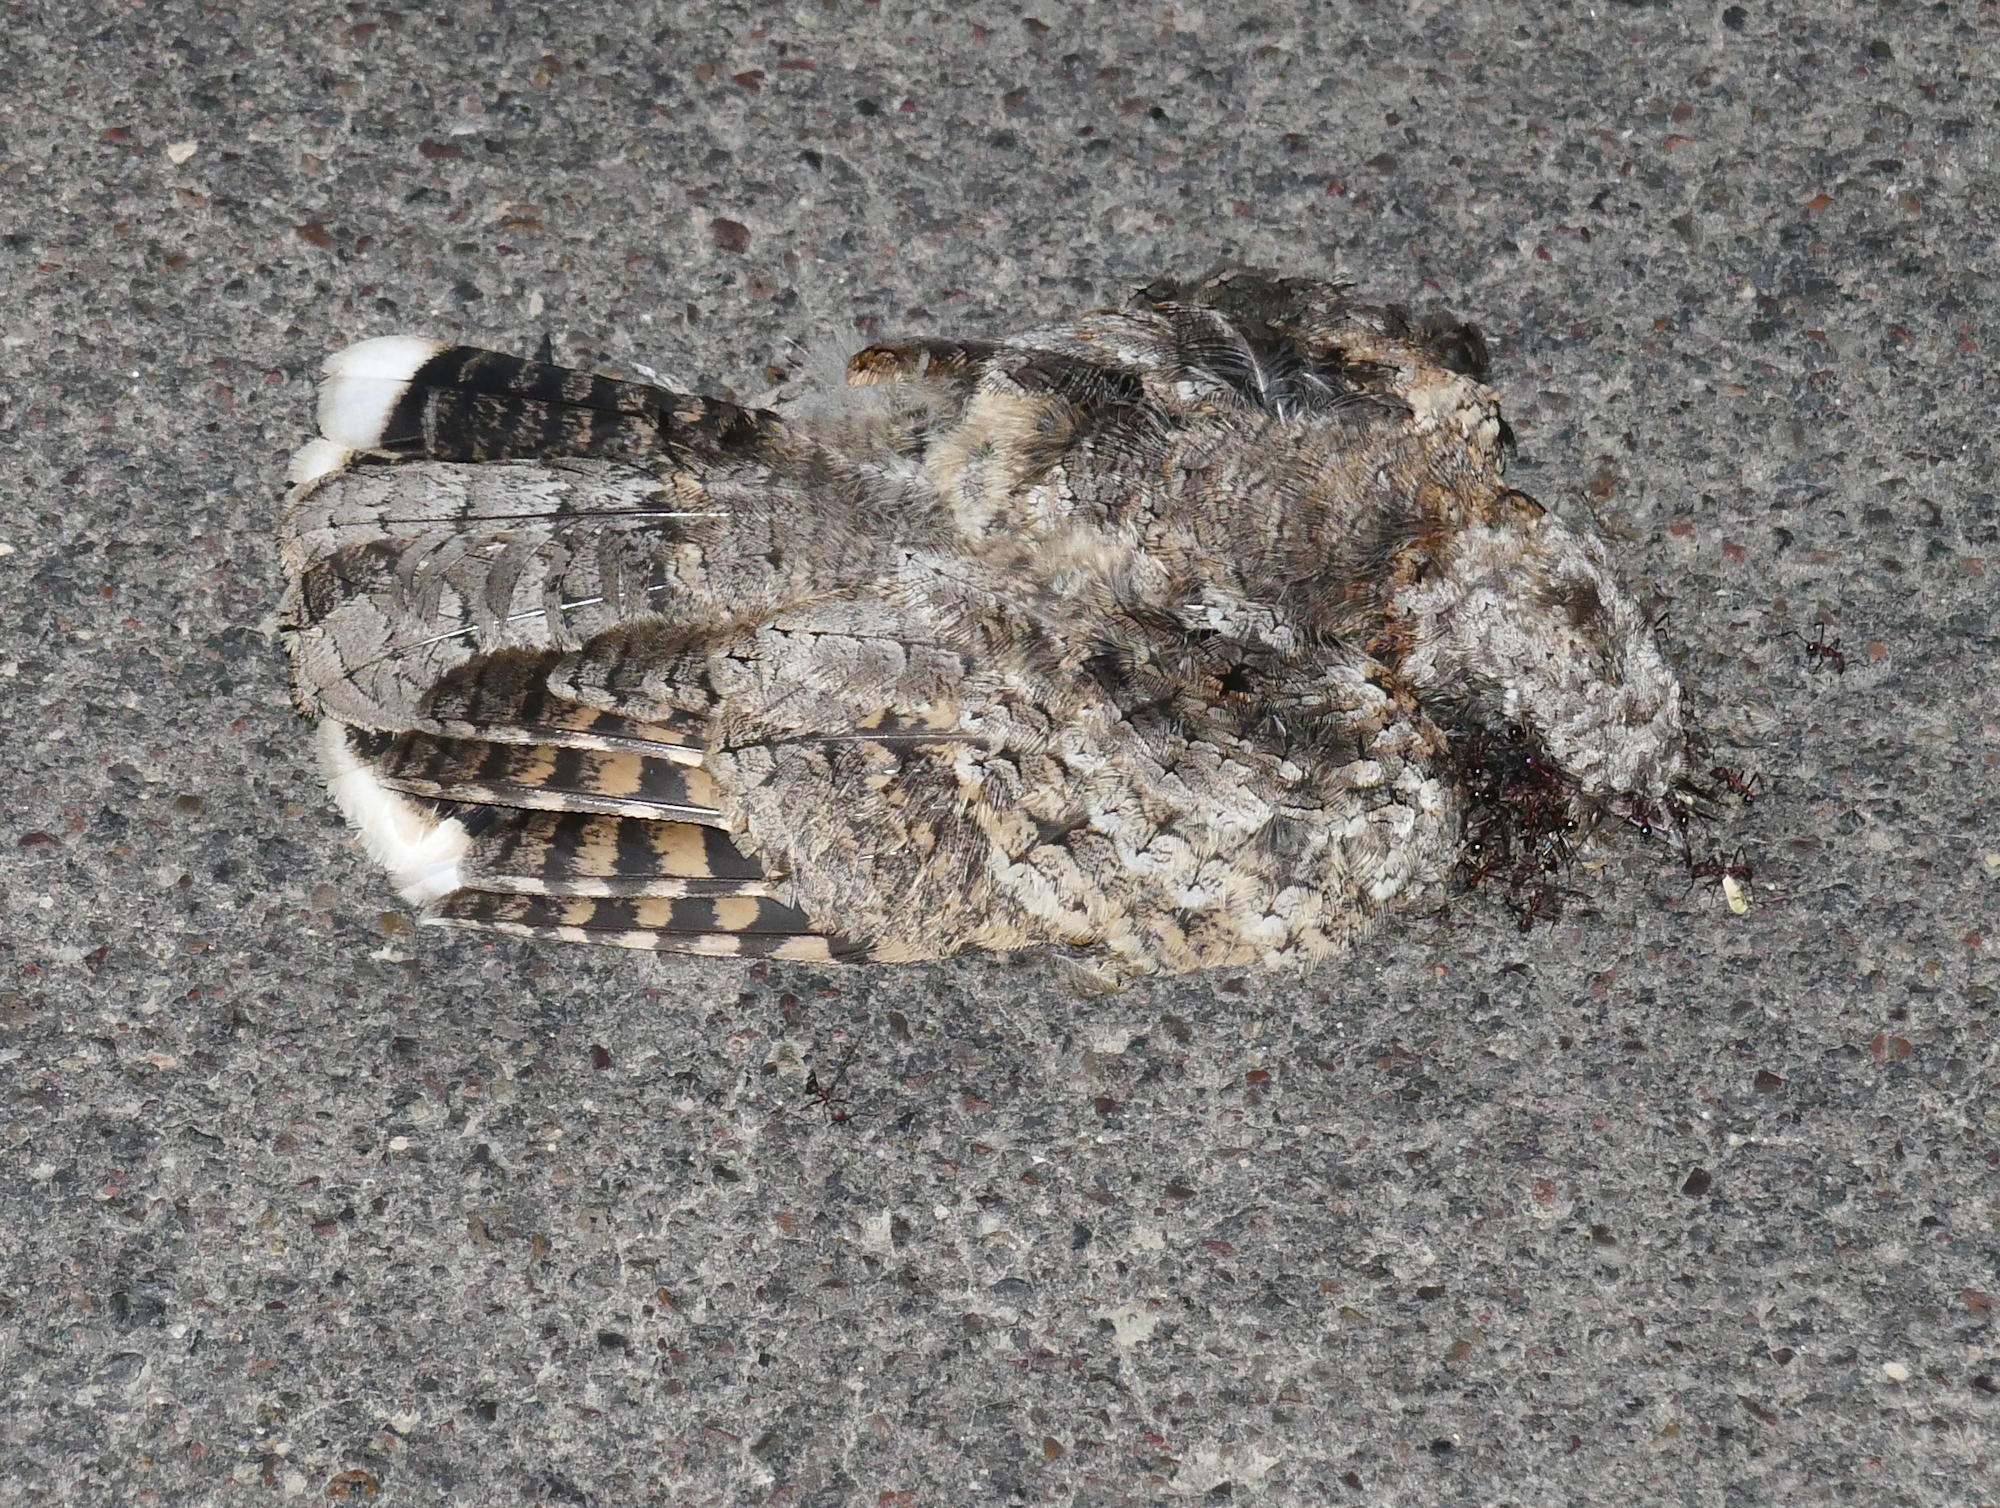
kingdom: Animalia
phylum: Chordata
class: Aves
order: Caprimulgiformes
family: Caprimulgidae
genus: Phalaenoptilus
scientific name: Phalaenoptilus nuttallii
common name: Common poorwill
